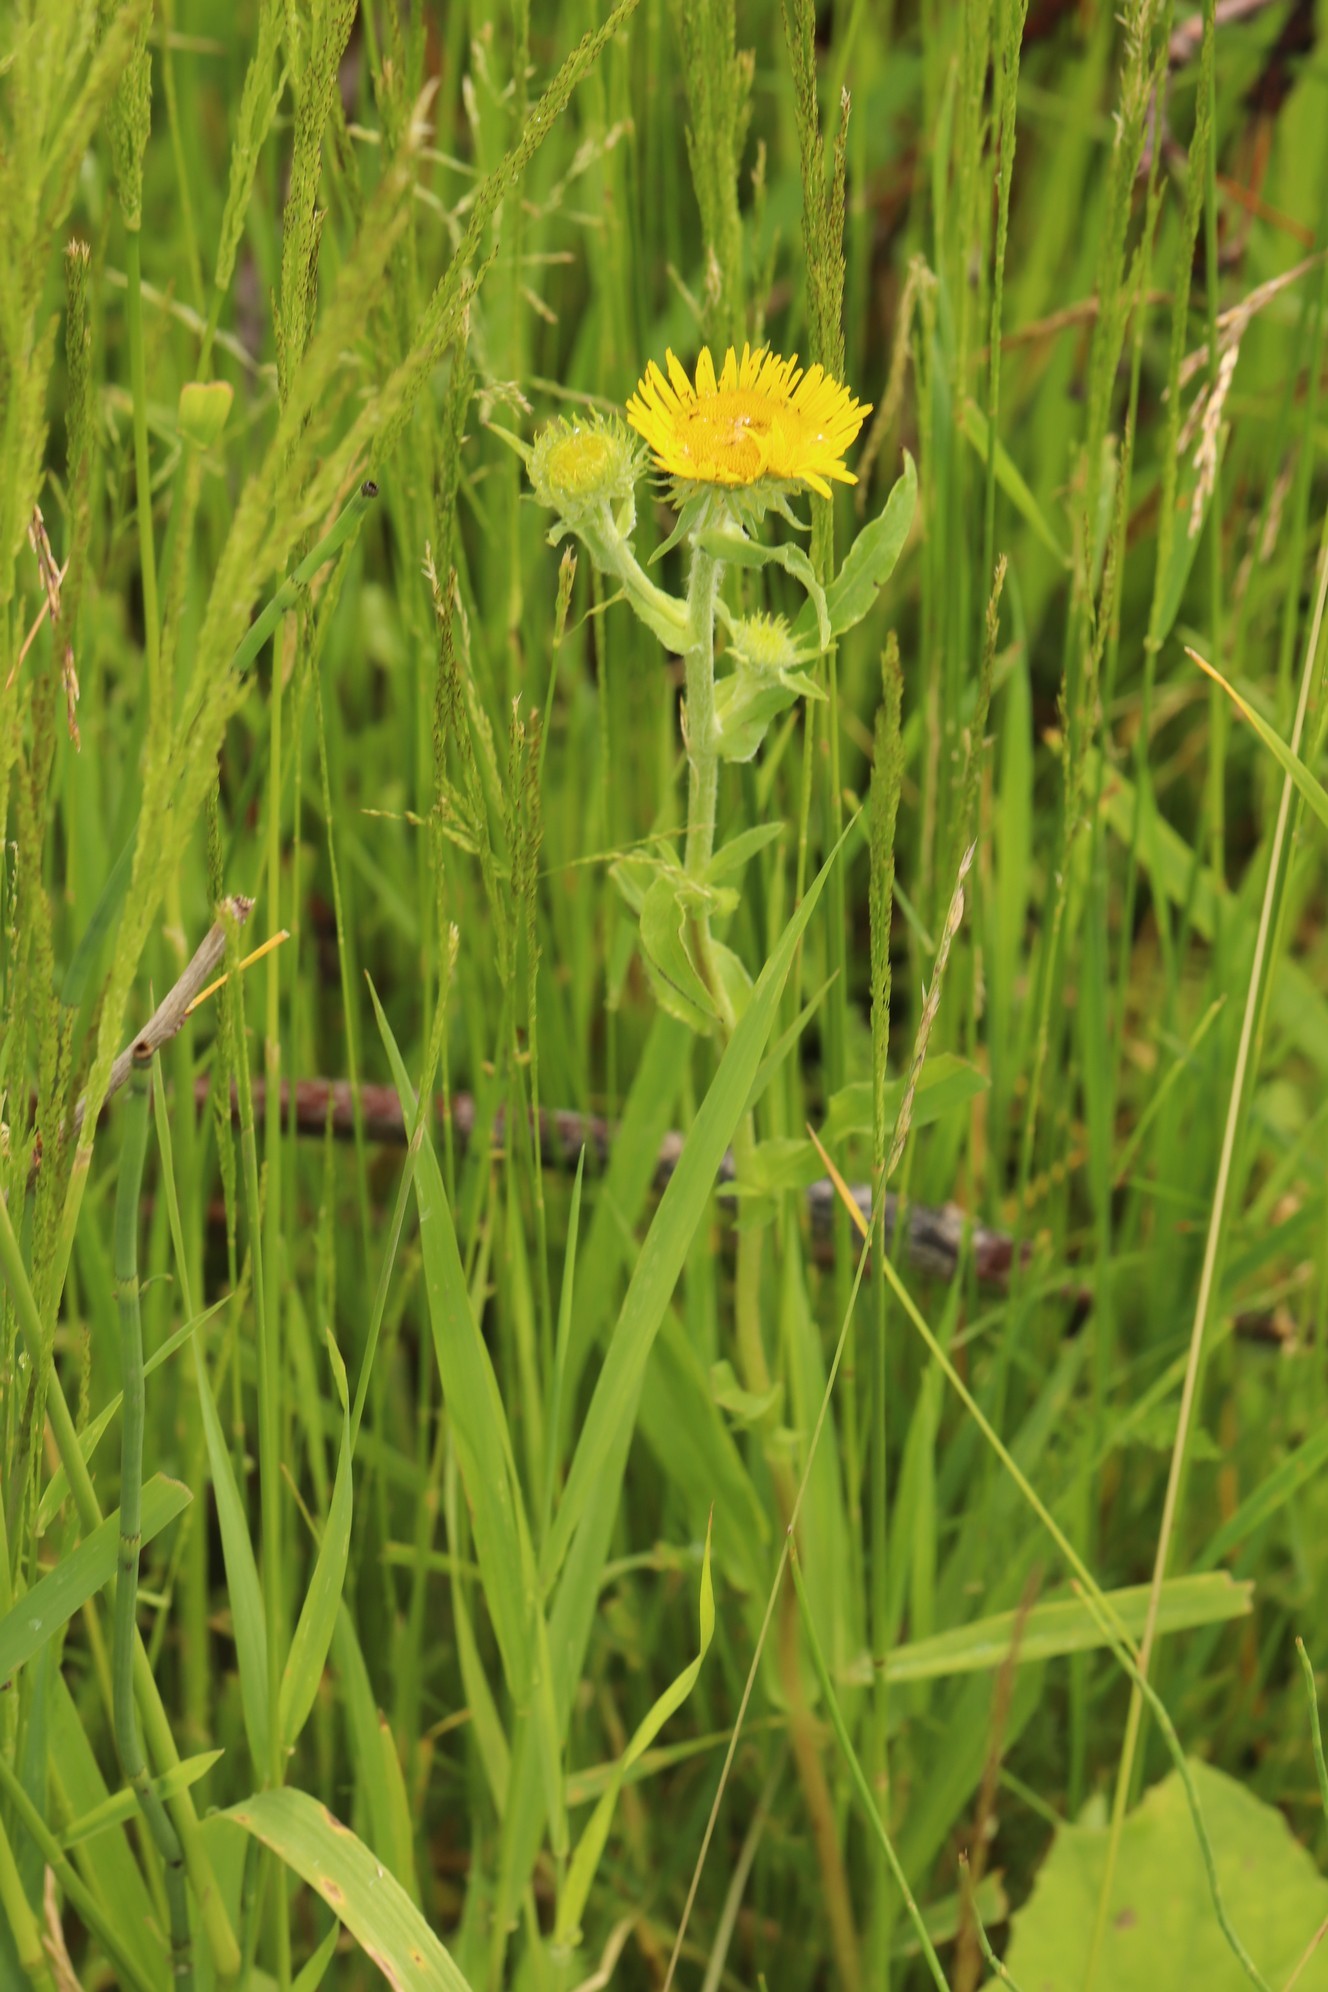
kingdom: Plantae
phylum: Tracheophyta
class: Magnoliopsida
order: Asterales
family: Asteraceae
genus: Pentanema
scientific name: Pentanema britannicum
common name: British elecampane
